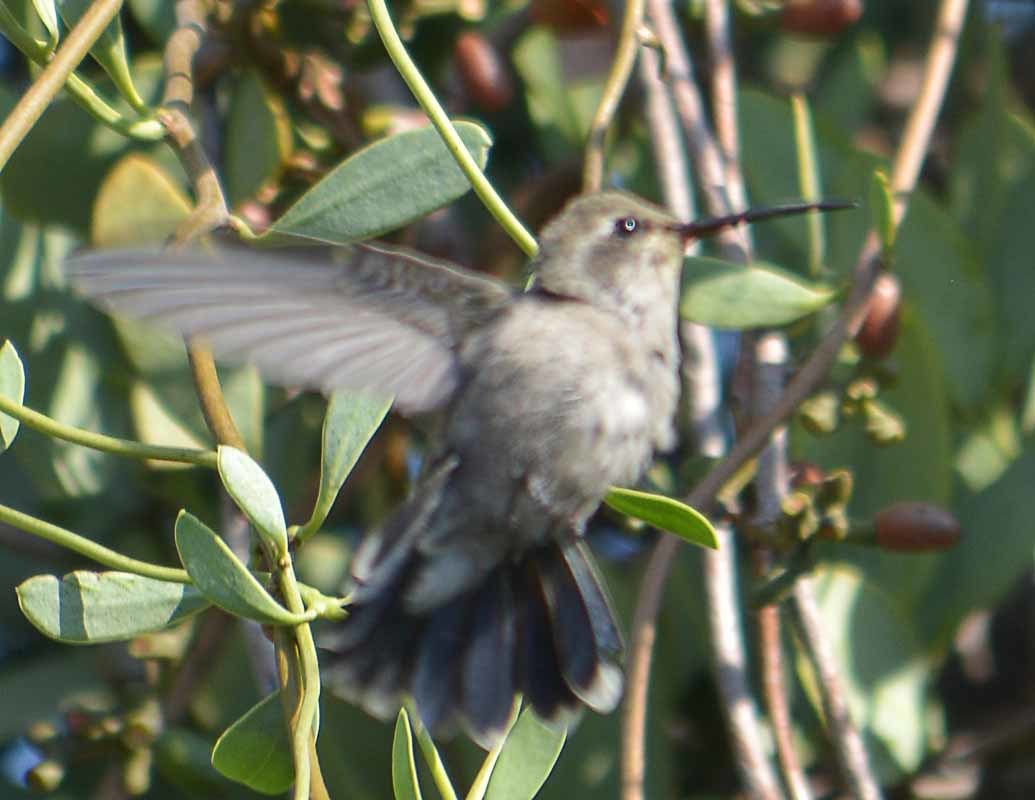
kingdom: Animalia
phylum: Chordata
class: Aves
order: Apodiformes
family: Trochilidae
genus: Cynanthus
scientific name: Cynanthus latirostris
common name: Broad-billed hummingbird
